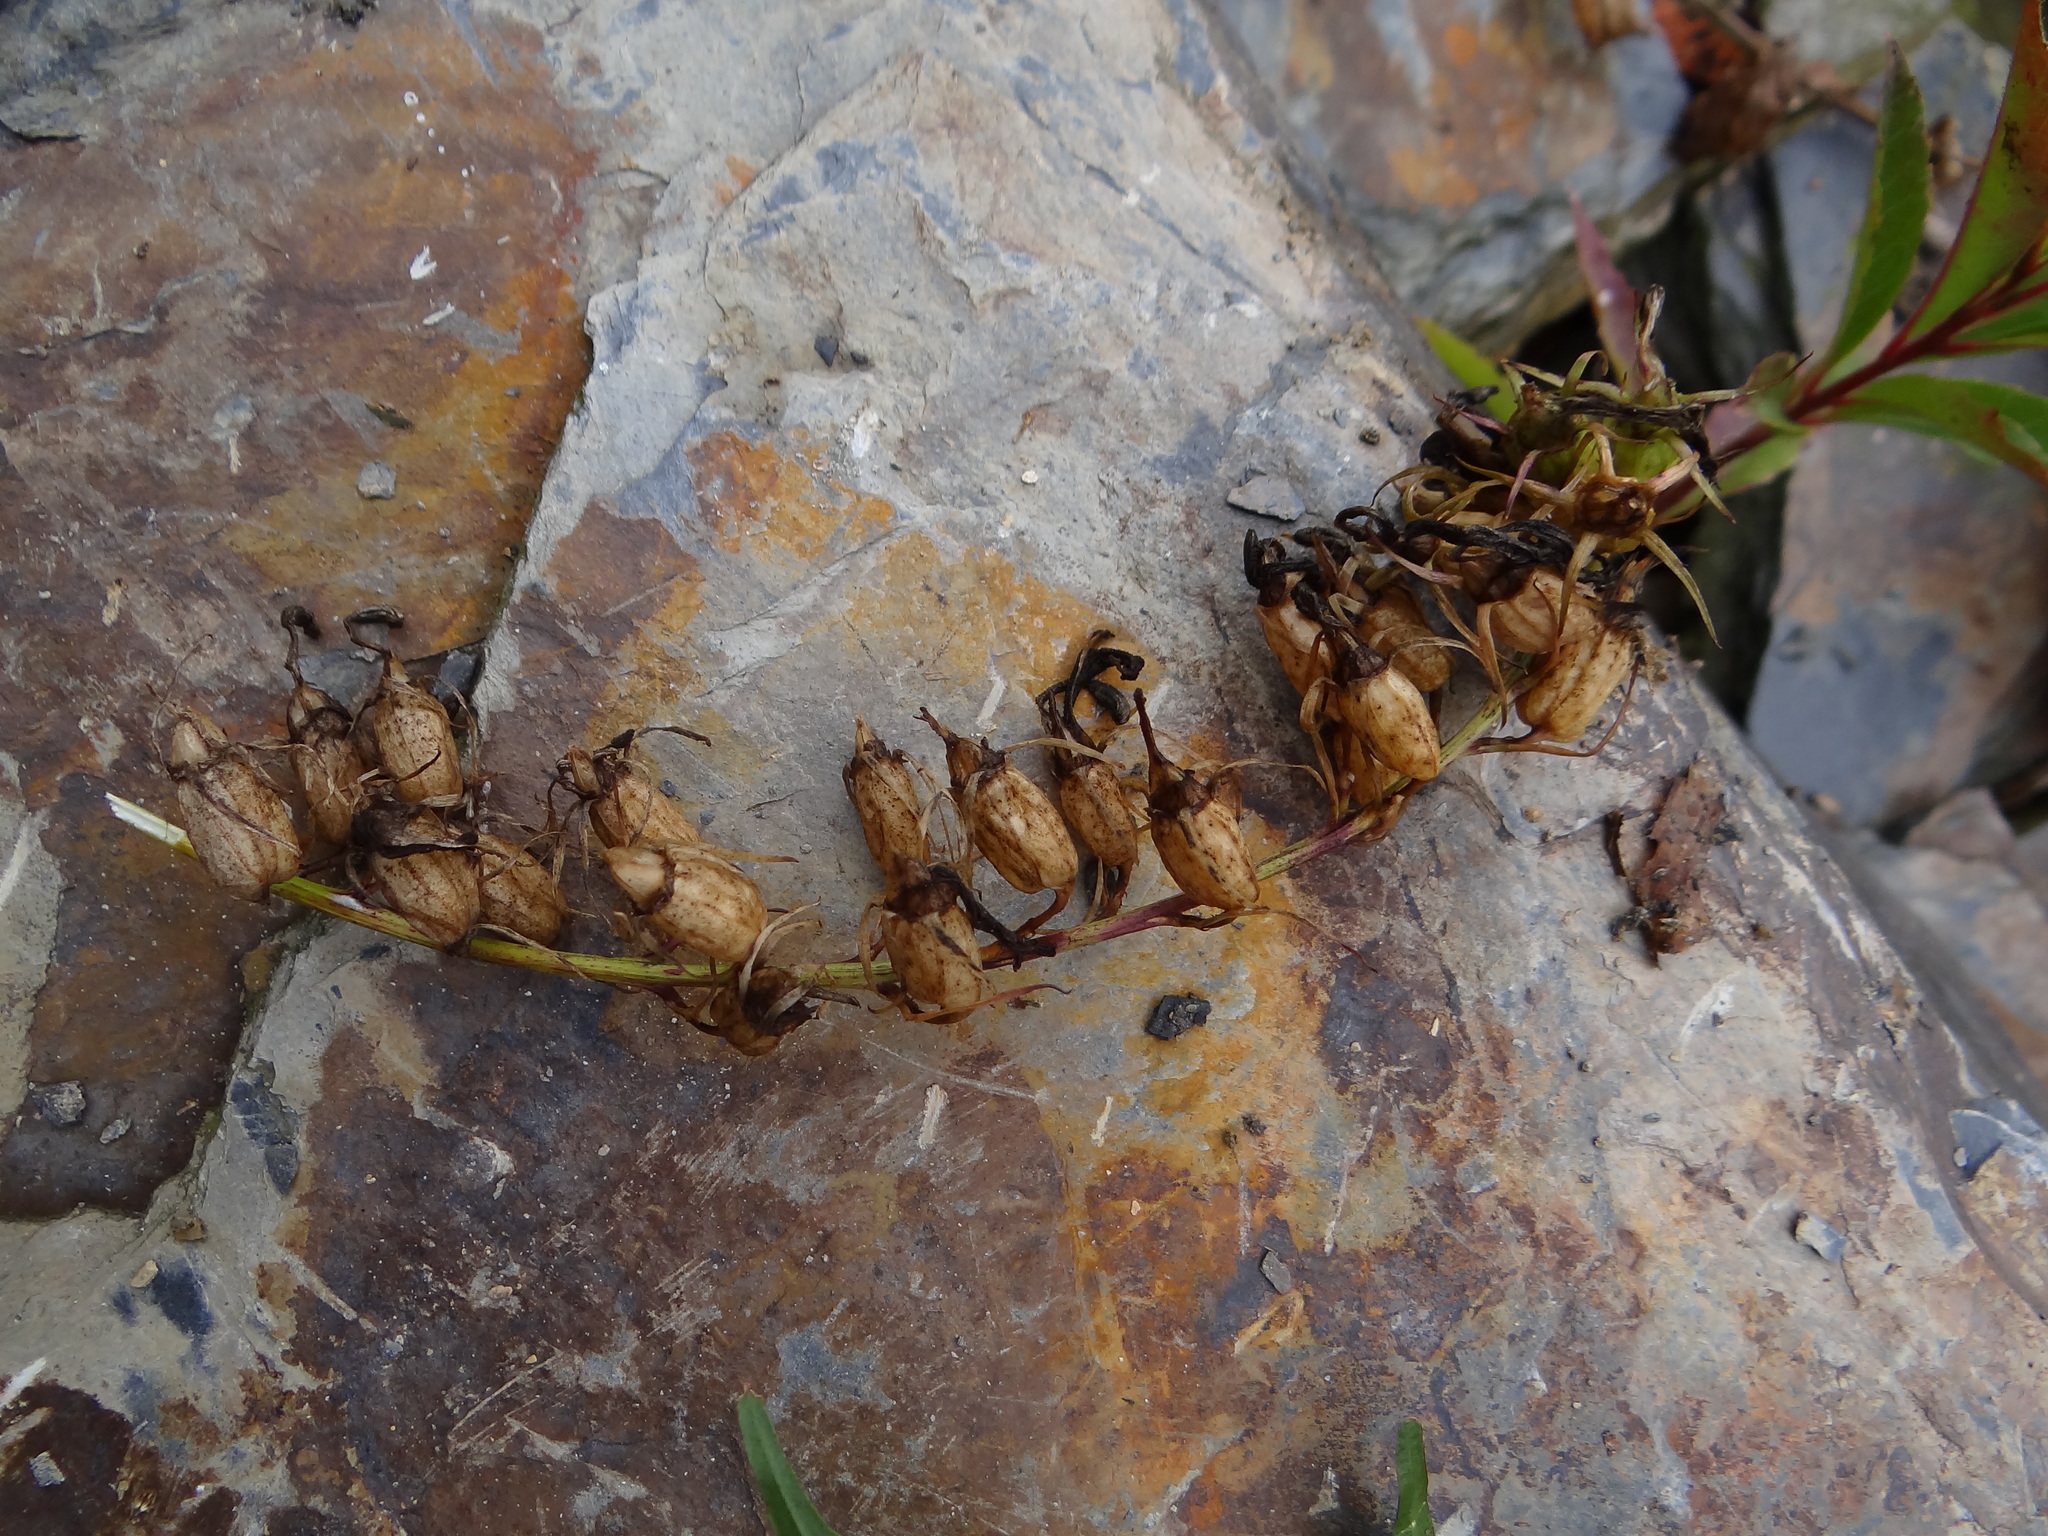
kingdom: Plantae
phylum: Tracheophyta
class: Magnoliopsida
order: Asterales
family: Campanulaceae
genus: Lobelia
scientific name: Lobelia seguinii
